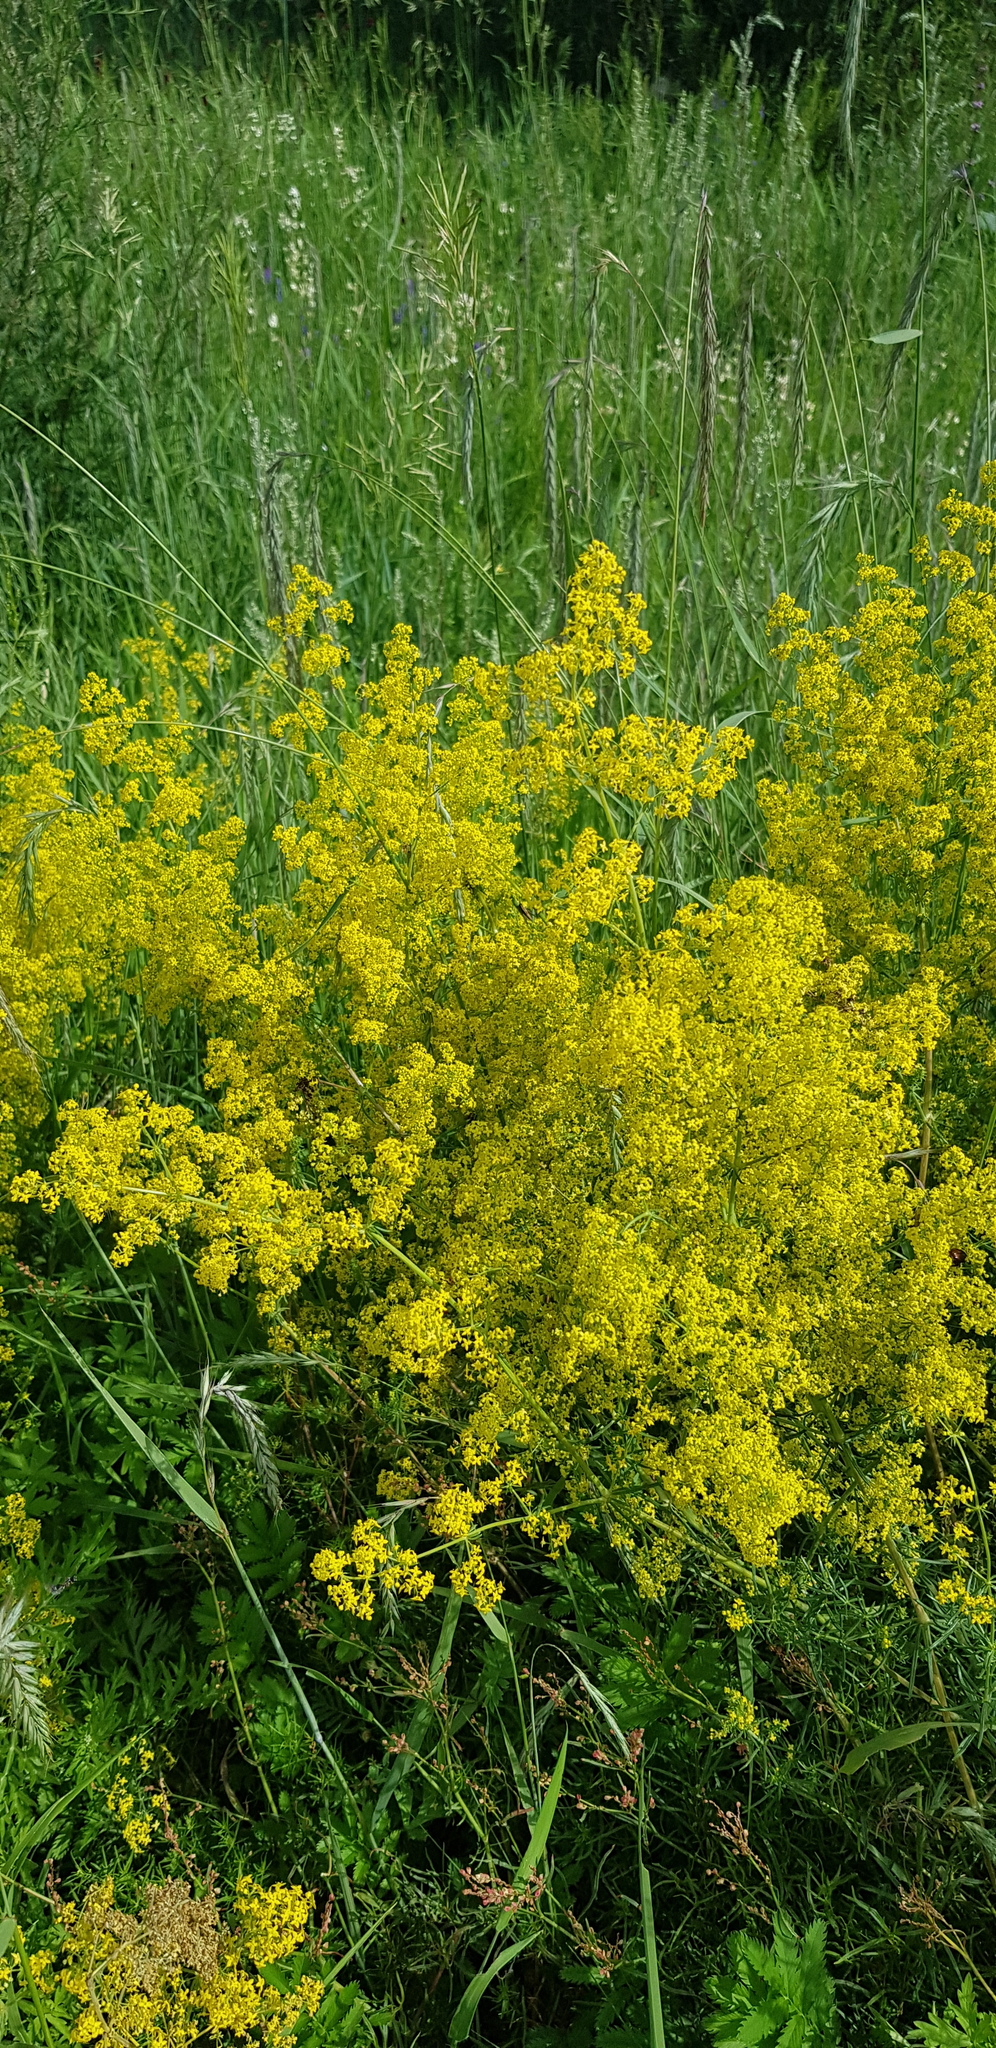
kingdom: Plantae
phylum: Tracheophyta
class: Magnoliopsida
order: Gentianales
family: Rubiaceae
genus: Galium
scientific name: Galium verum
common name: Lady's bedstraw
